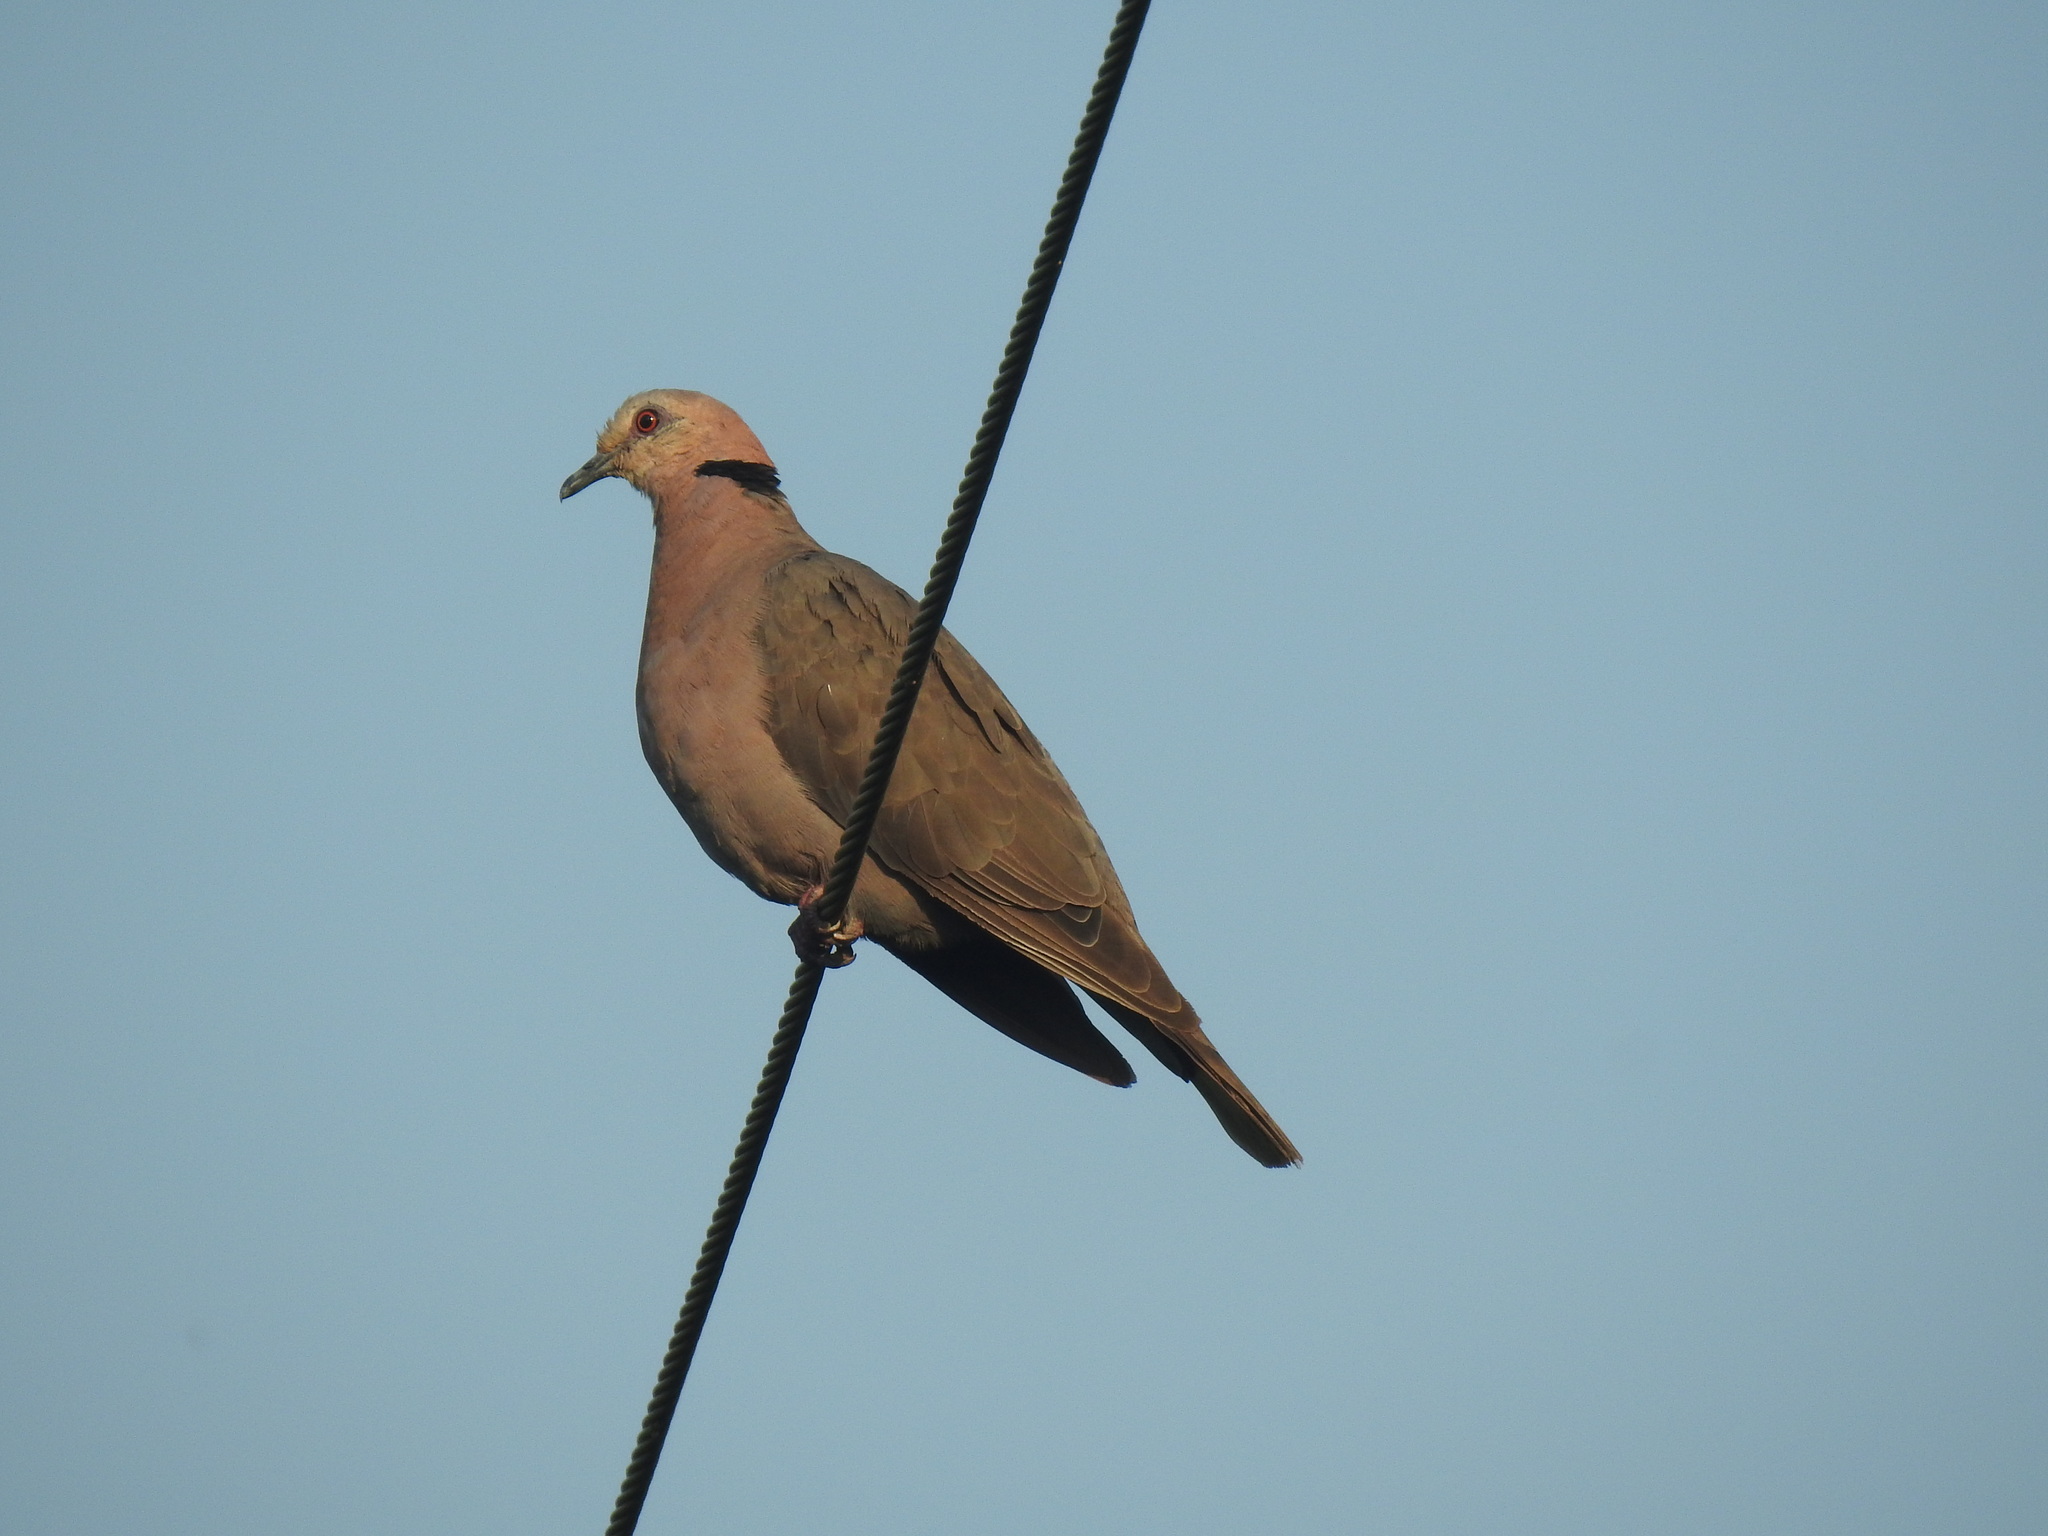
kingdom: Animalia
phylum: Chordata
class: Aves
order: Columbiformes
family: Columbidae
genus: Streptopelia
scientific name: Streptopelia semitorquata
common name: Red-eyed dove
